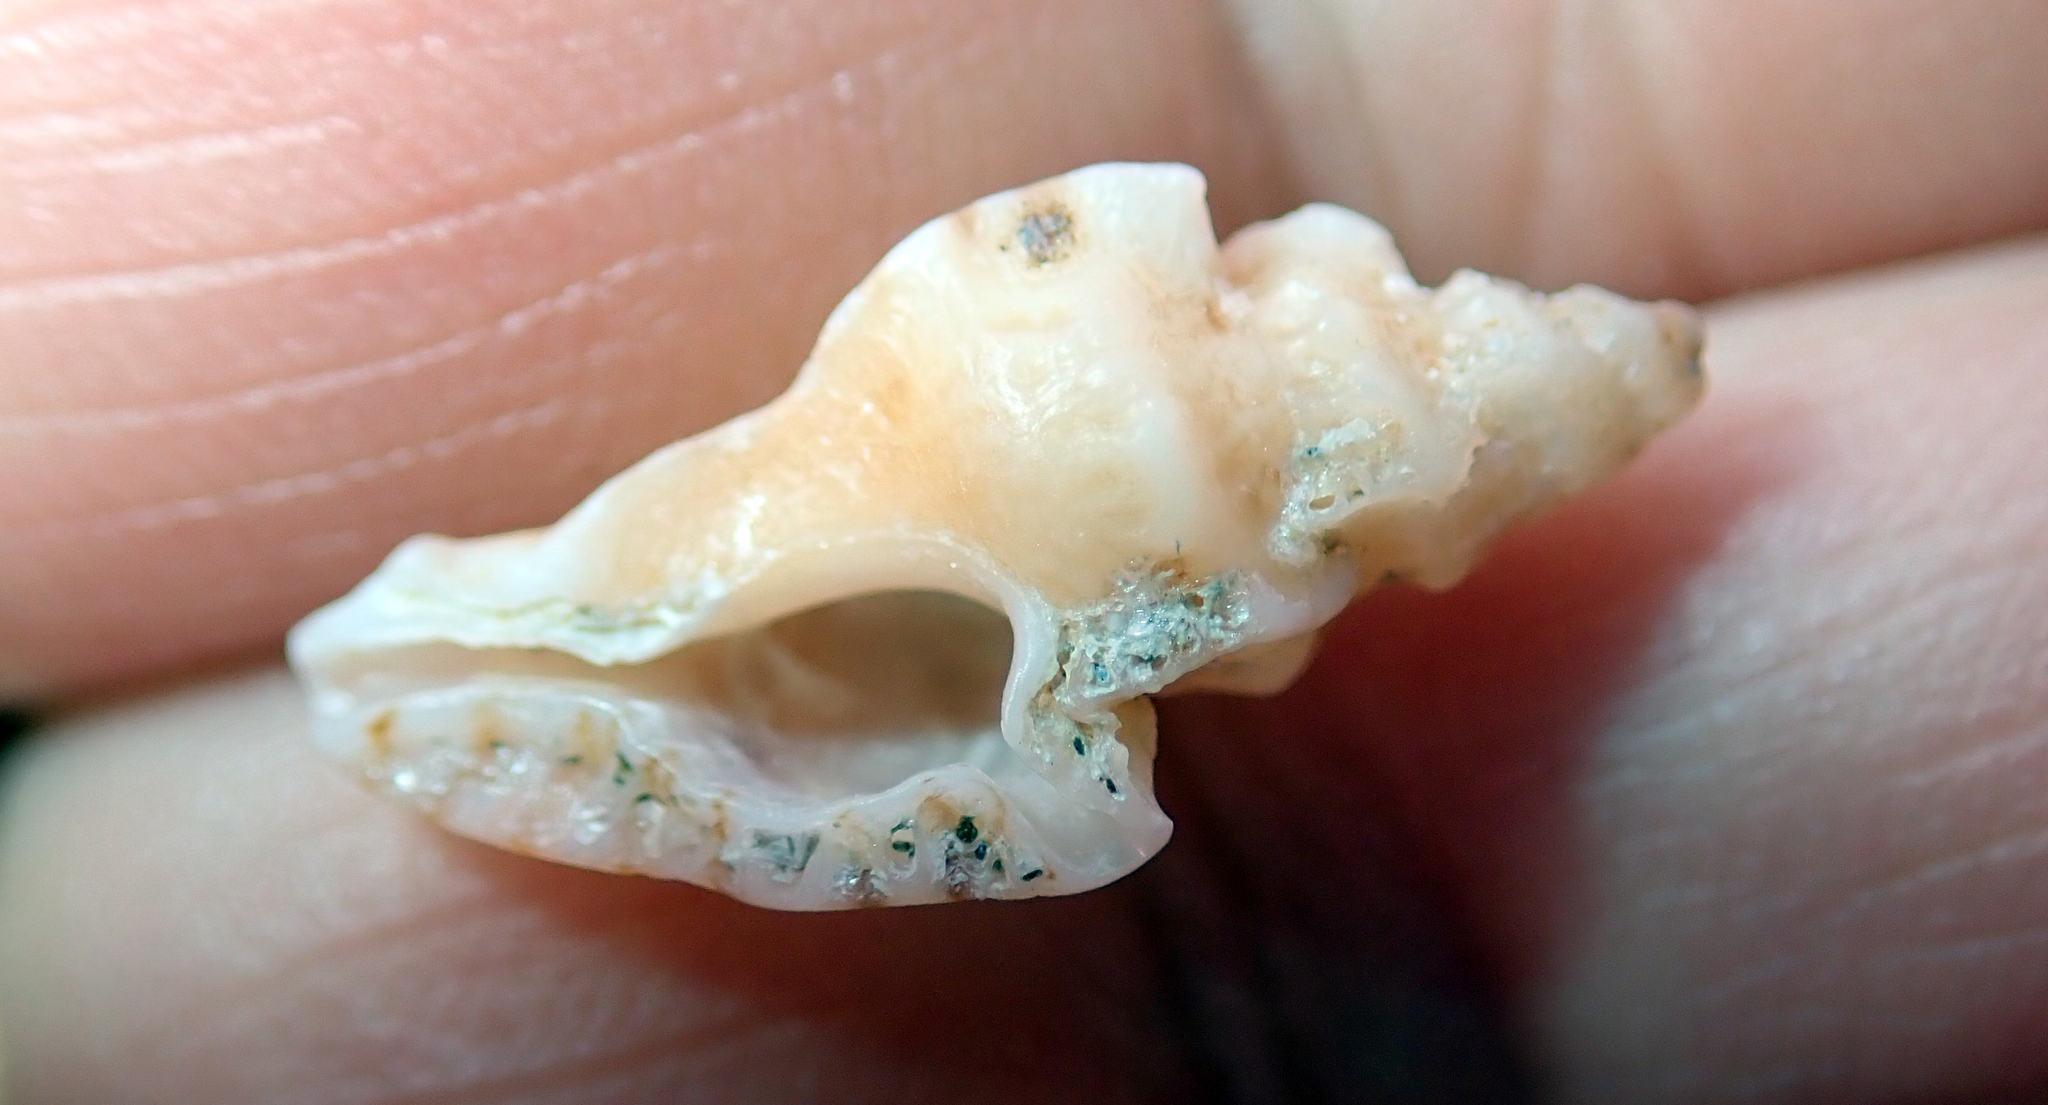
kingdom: Animalia
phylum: Mollusca
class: Gastropoda
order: Neogastropoda
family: Muricidae
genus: Prototyphis
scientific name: Prototyphis eos
